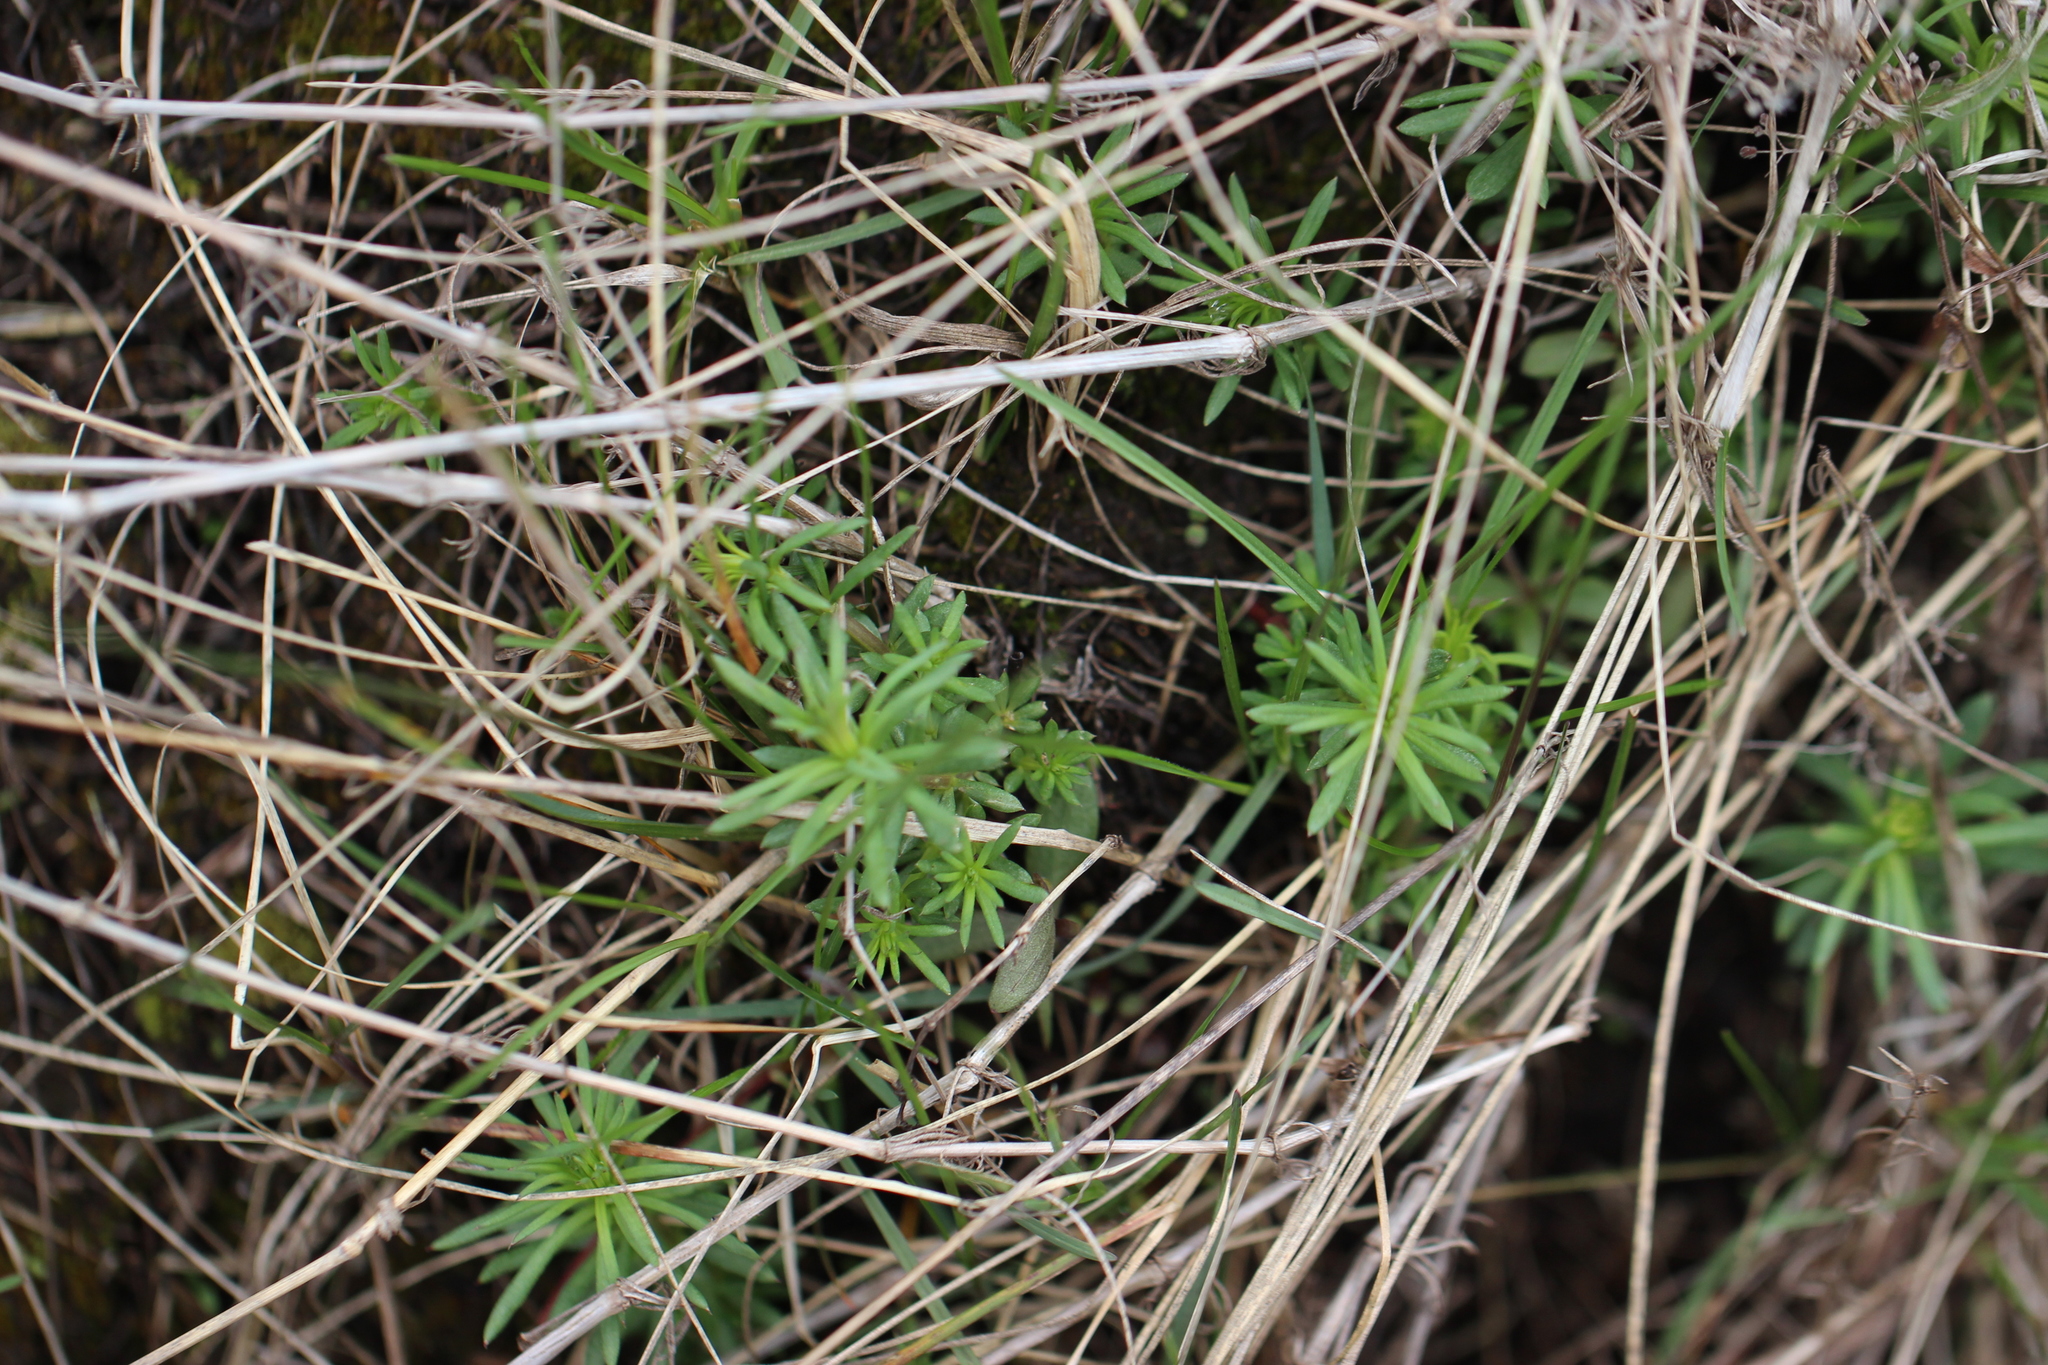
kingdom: Plantae
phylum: Tracheophyta
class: Magnoliopsida
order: Gentianales
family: Rubiaceae
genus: Galium
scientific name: Galium verum
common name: Lady's bedstraw
